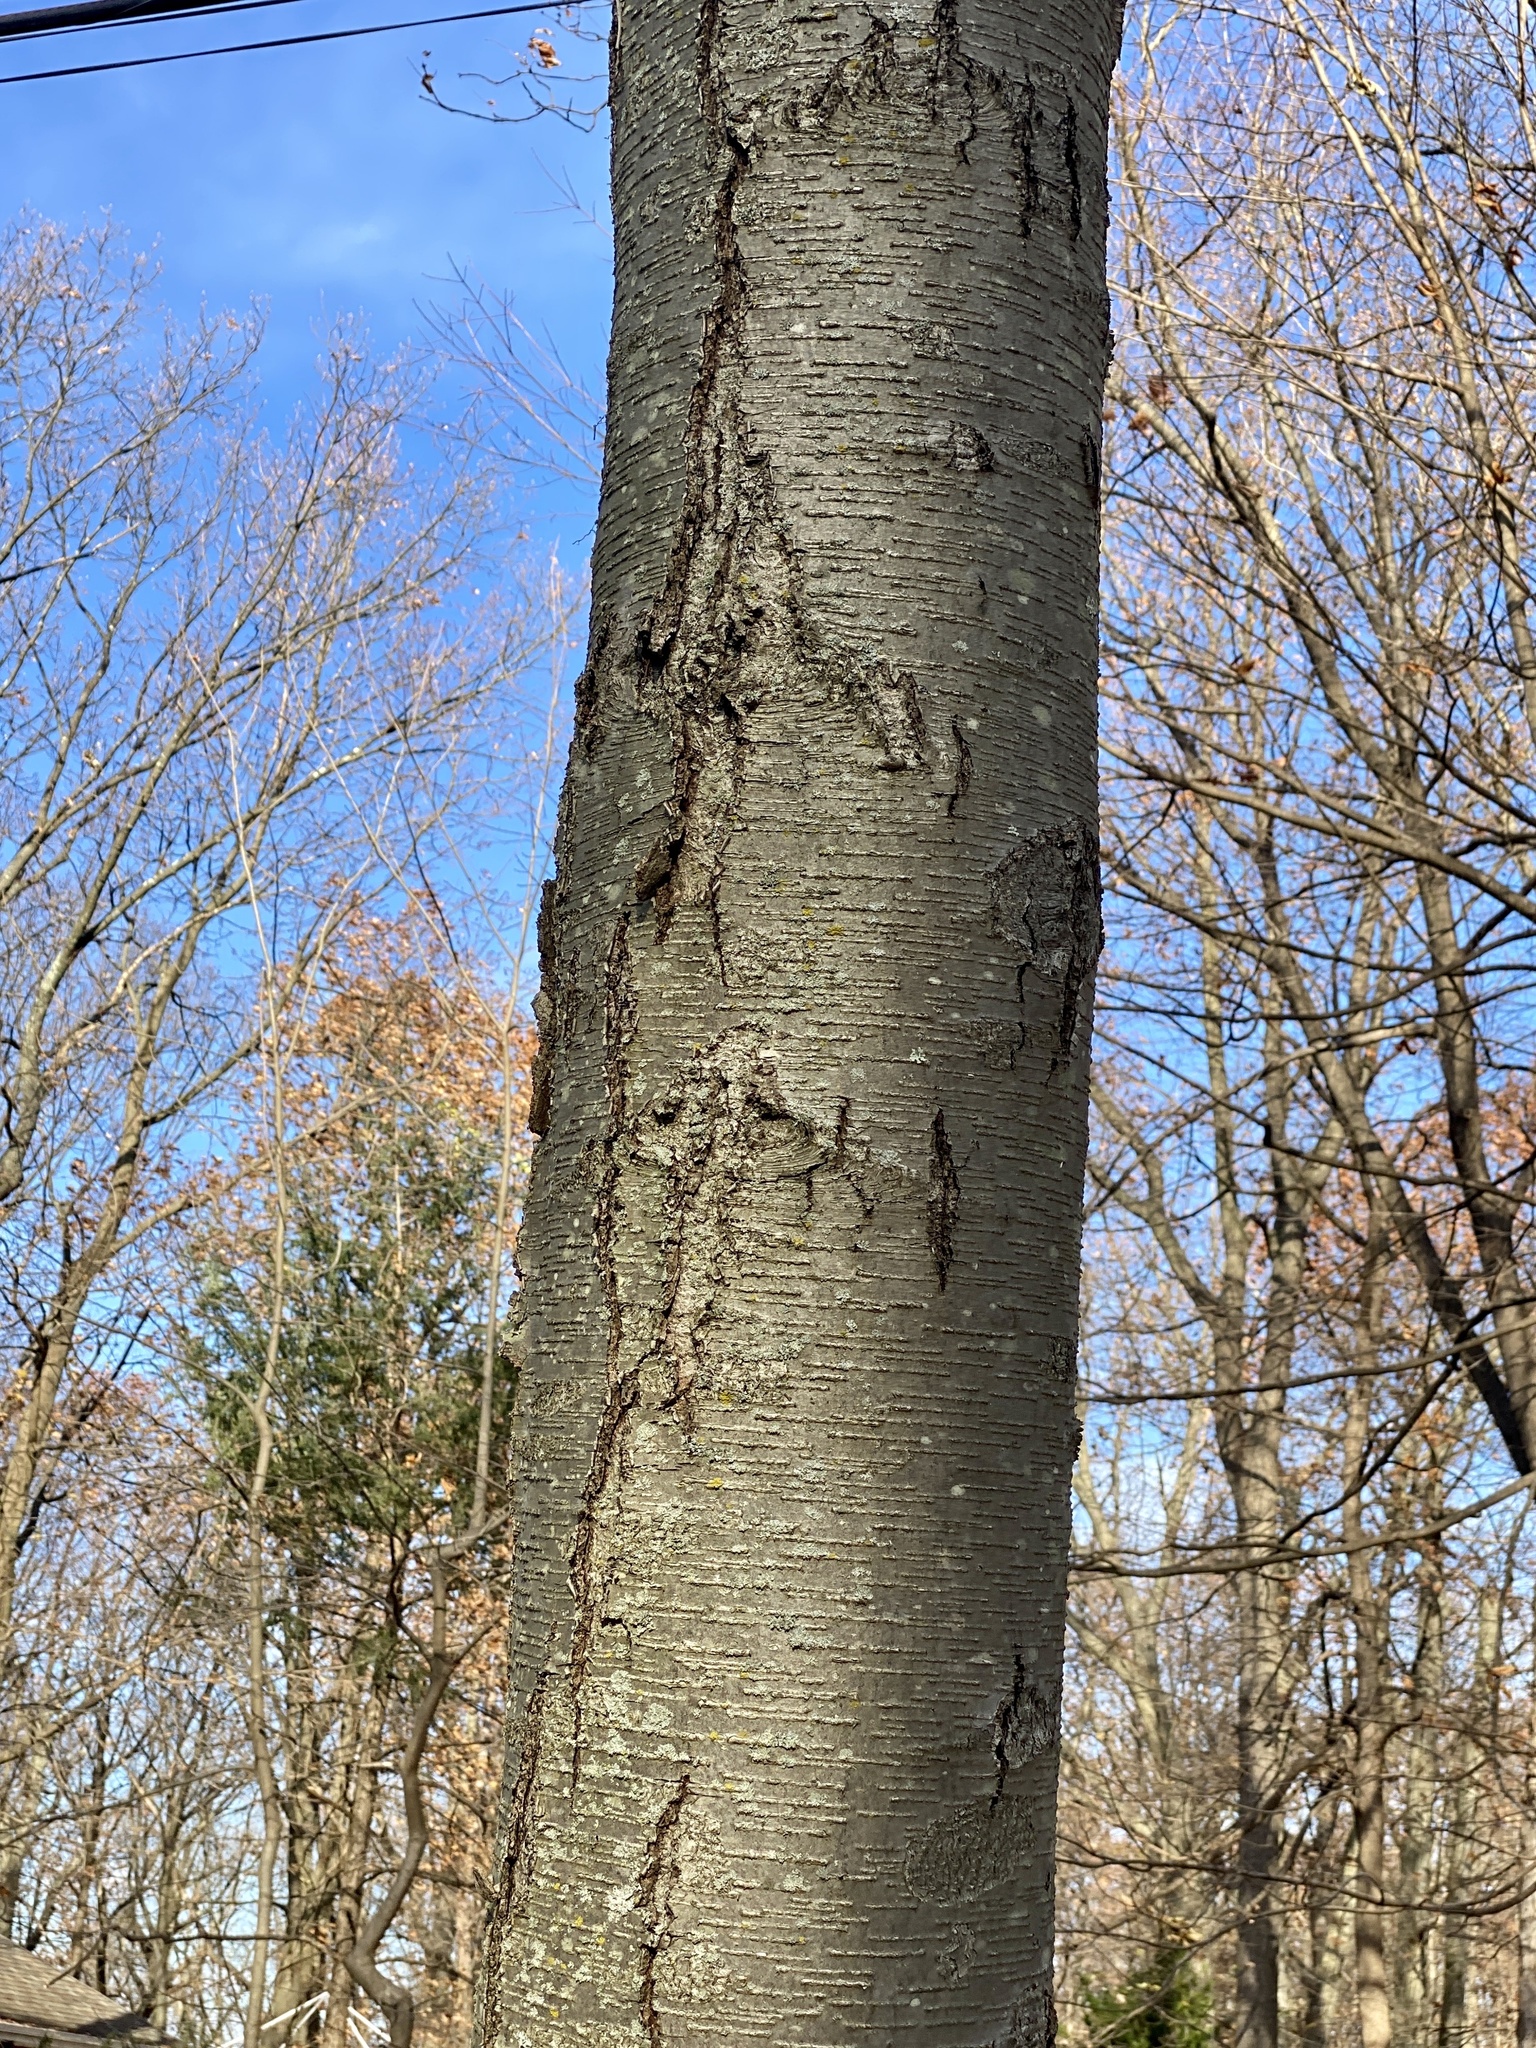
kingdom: Plantae
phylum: Tracheophyta
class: Magnoliopsida
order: Fagales
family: Betulaceae
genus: Betula
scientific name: Betula lenta
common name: Black birch
